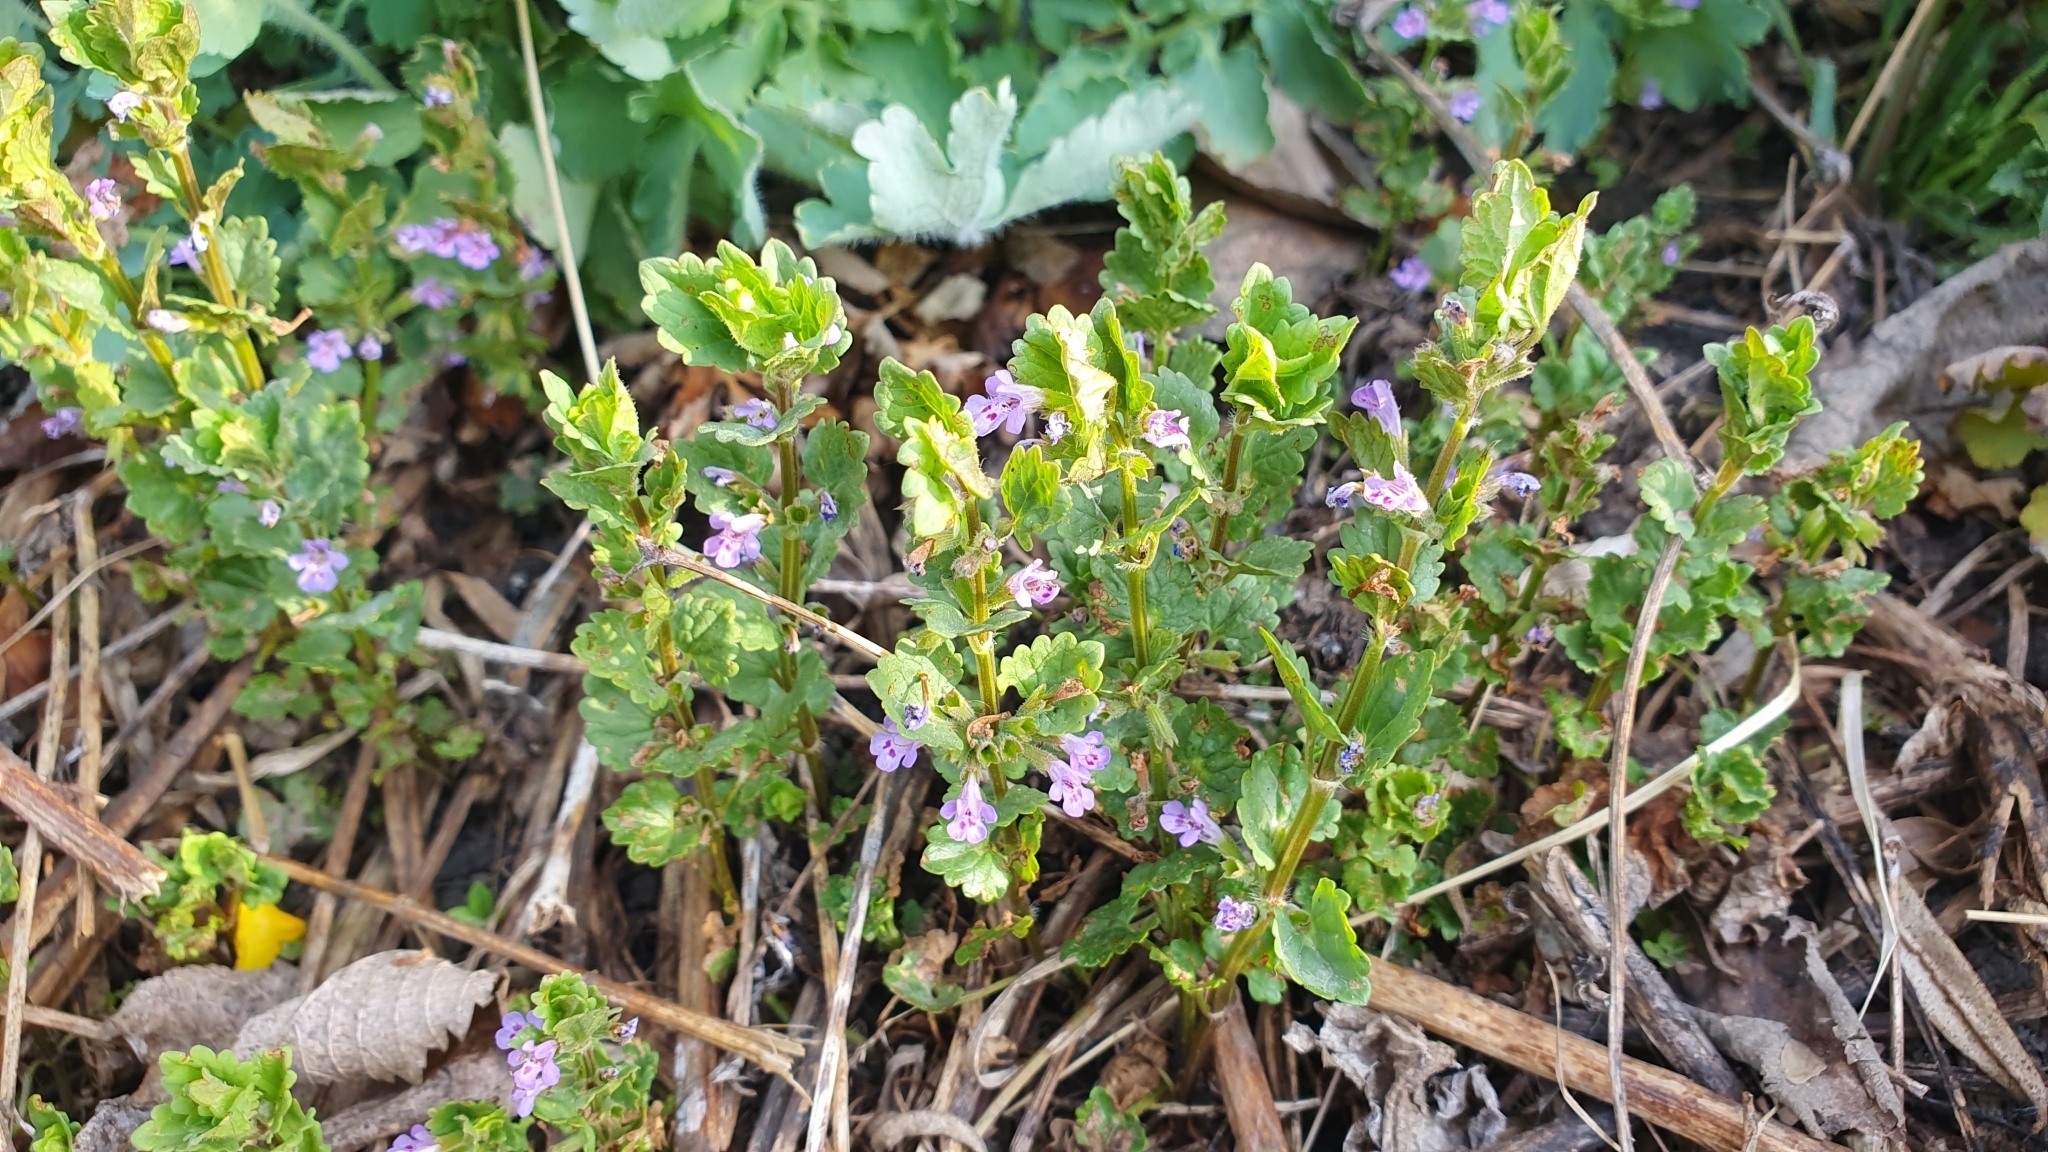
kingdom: Plantae
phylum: Tracheophyta
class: Magnoliopsida
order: Lamiales
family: Lamiaceae
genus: Glechoma
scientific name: Glechoma hederacea
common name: Ground ivy
